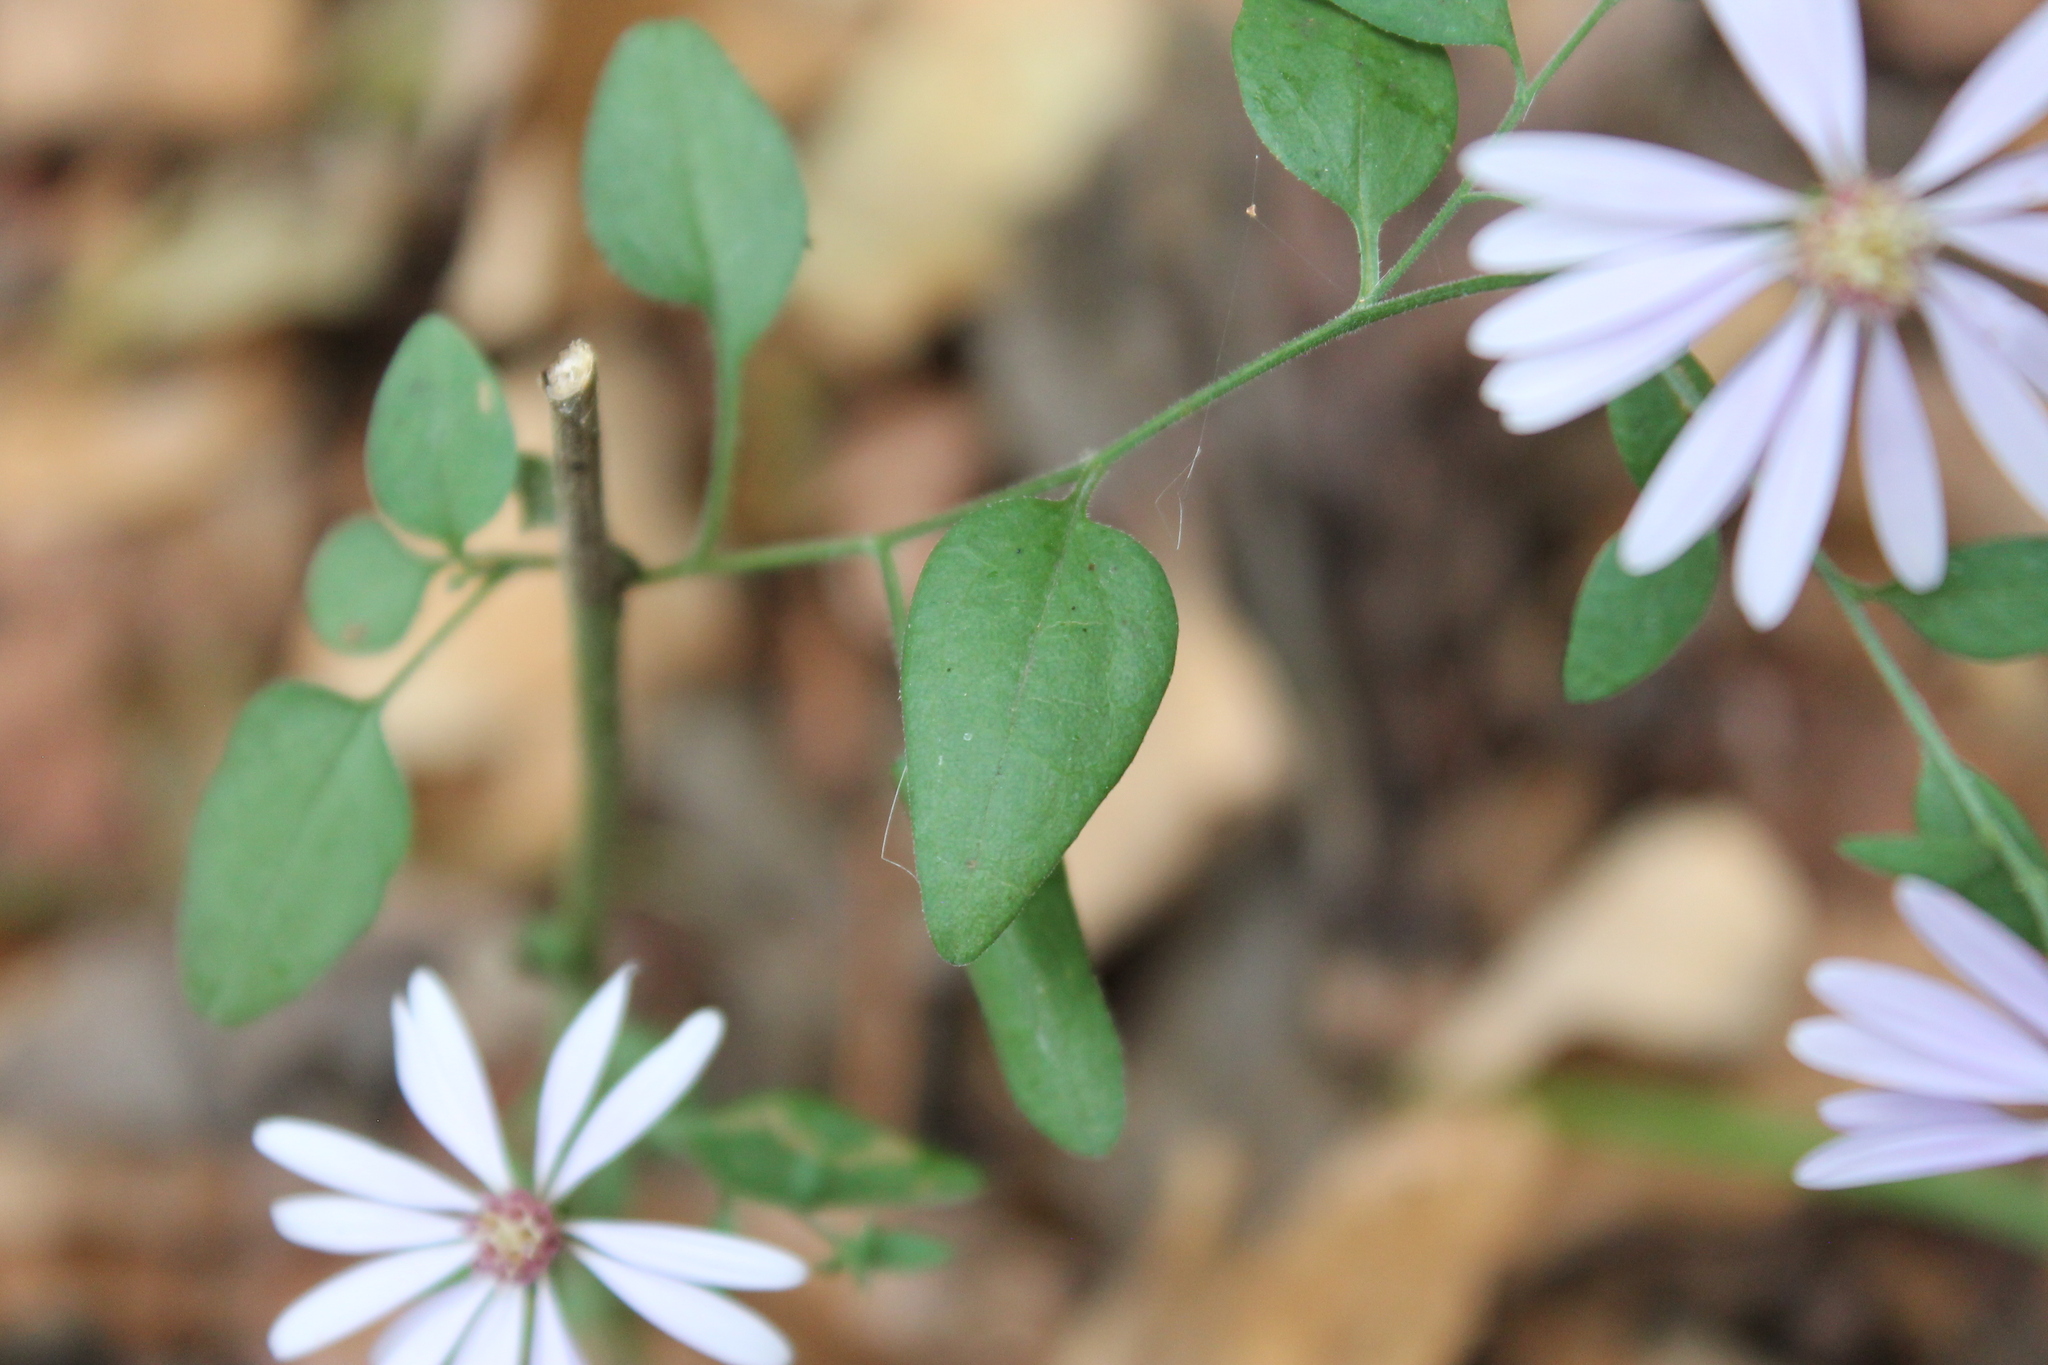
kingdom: Plantae
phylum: Tracheophyta
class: Magnoliopsida
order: Asterales
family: Asteraceae
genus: Symphyotrichum
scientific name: Symphyotrichum shortii
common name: Short's aster
